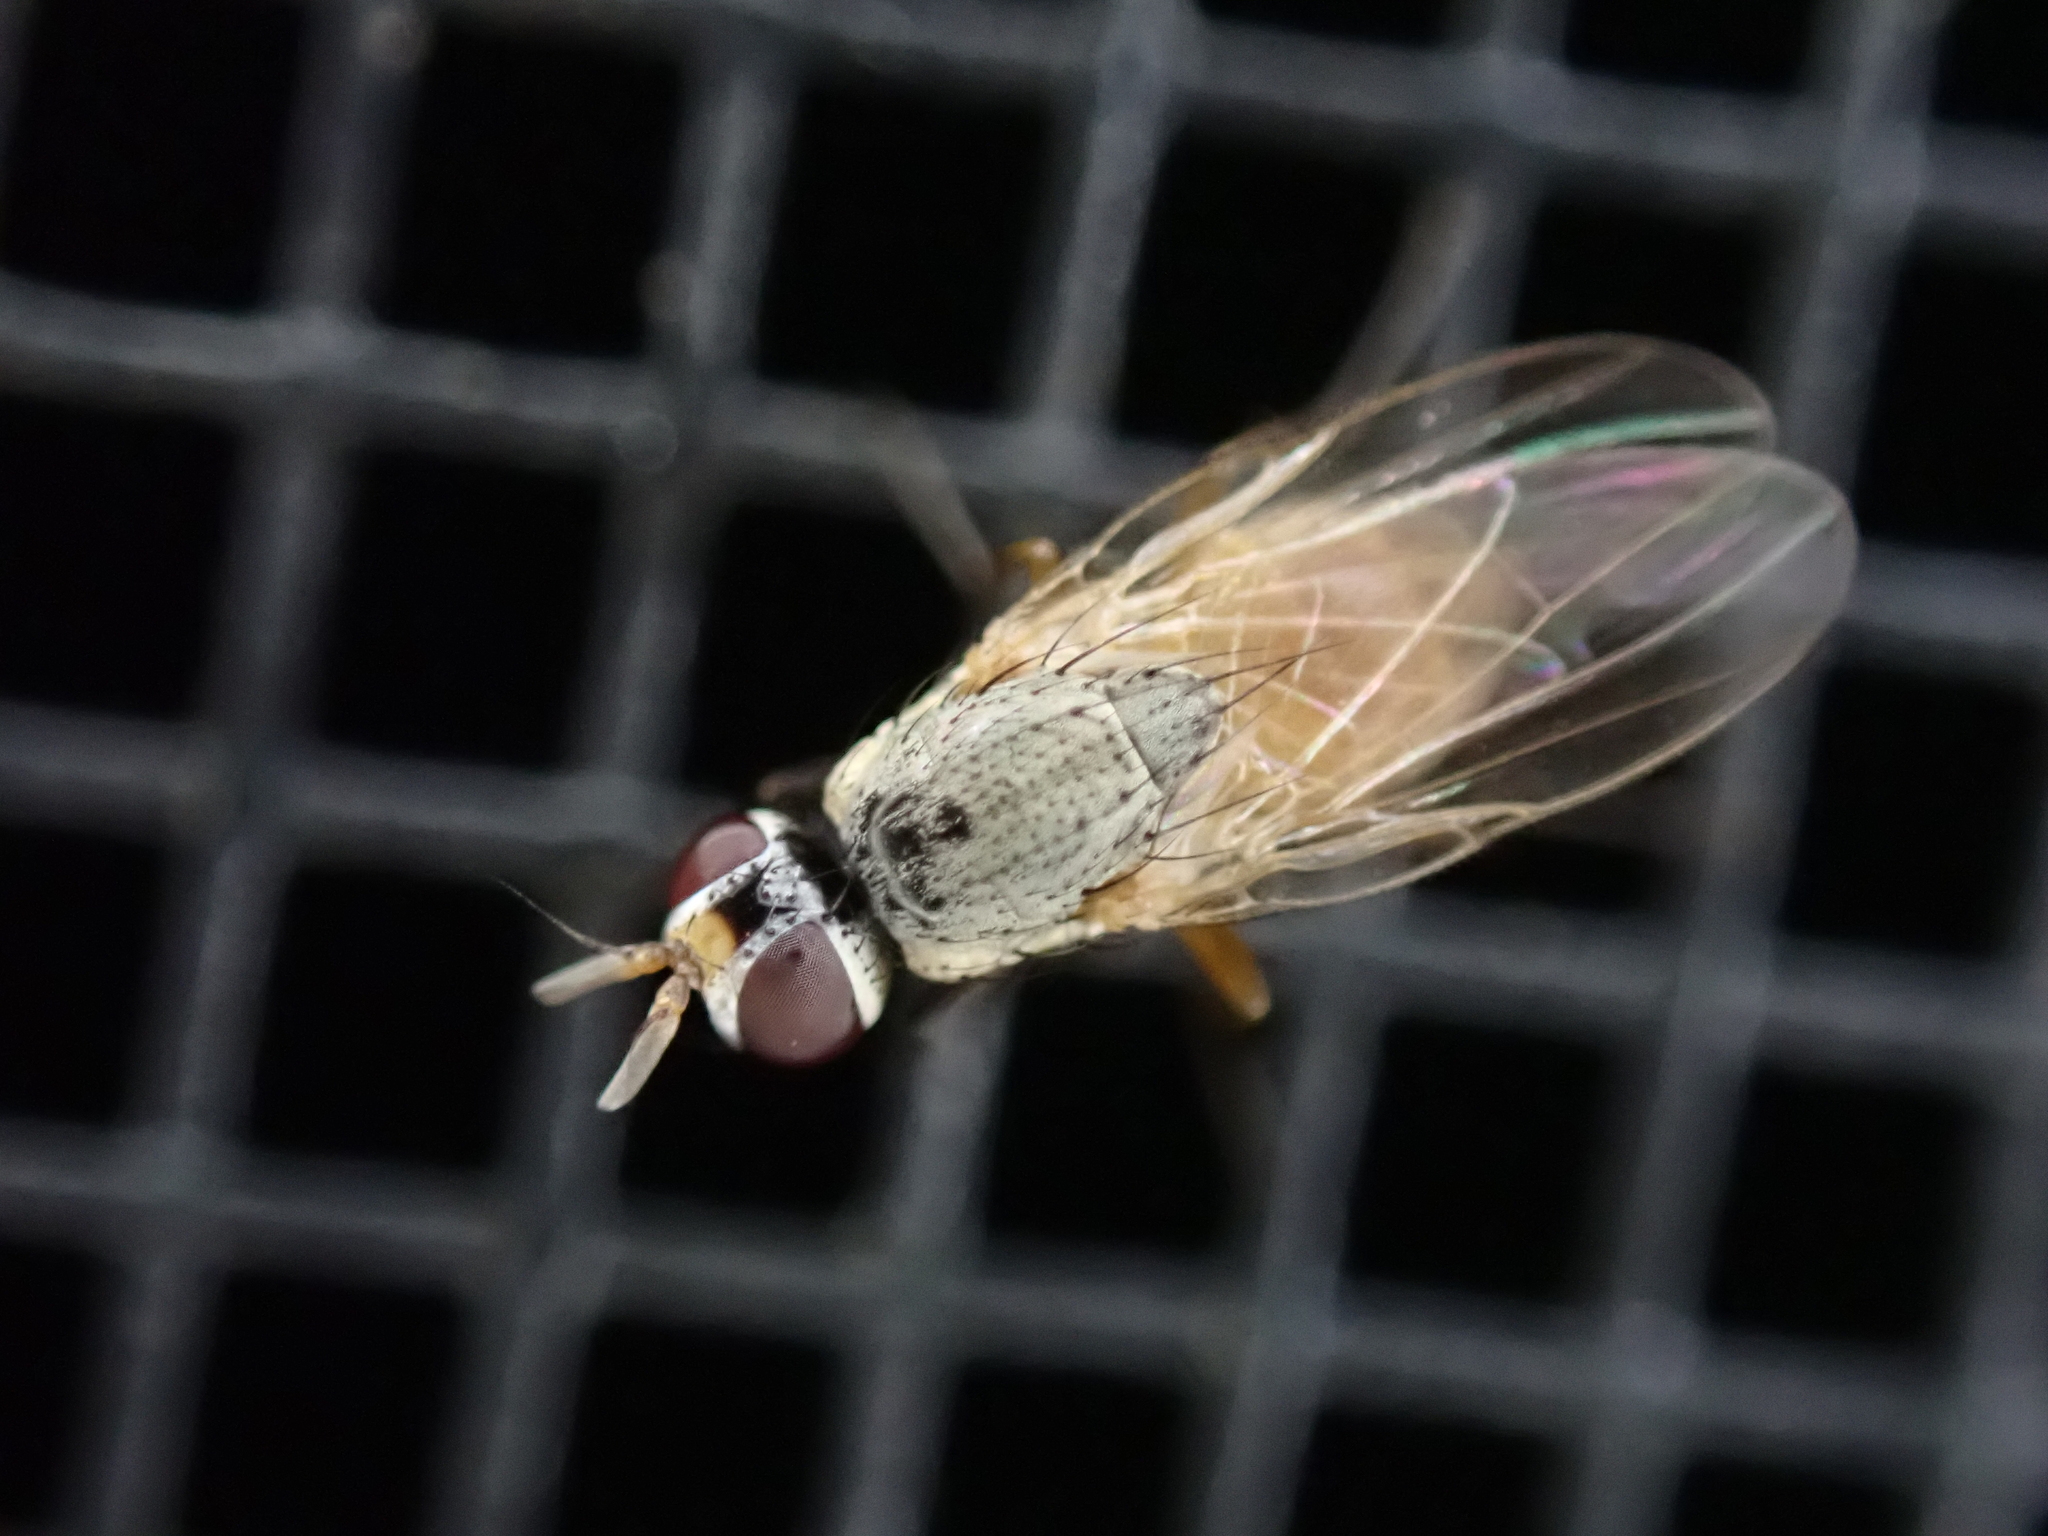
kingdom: Animalia
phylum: Arthropoda
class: Insecta
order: Diptera
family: Muscidae
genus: Atherigona
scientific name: Atherigona reversura
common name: Bermudagrass stem maggot
